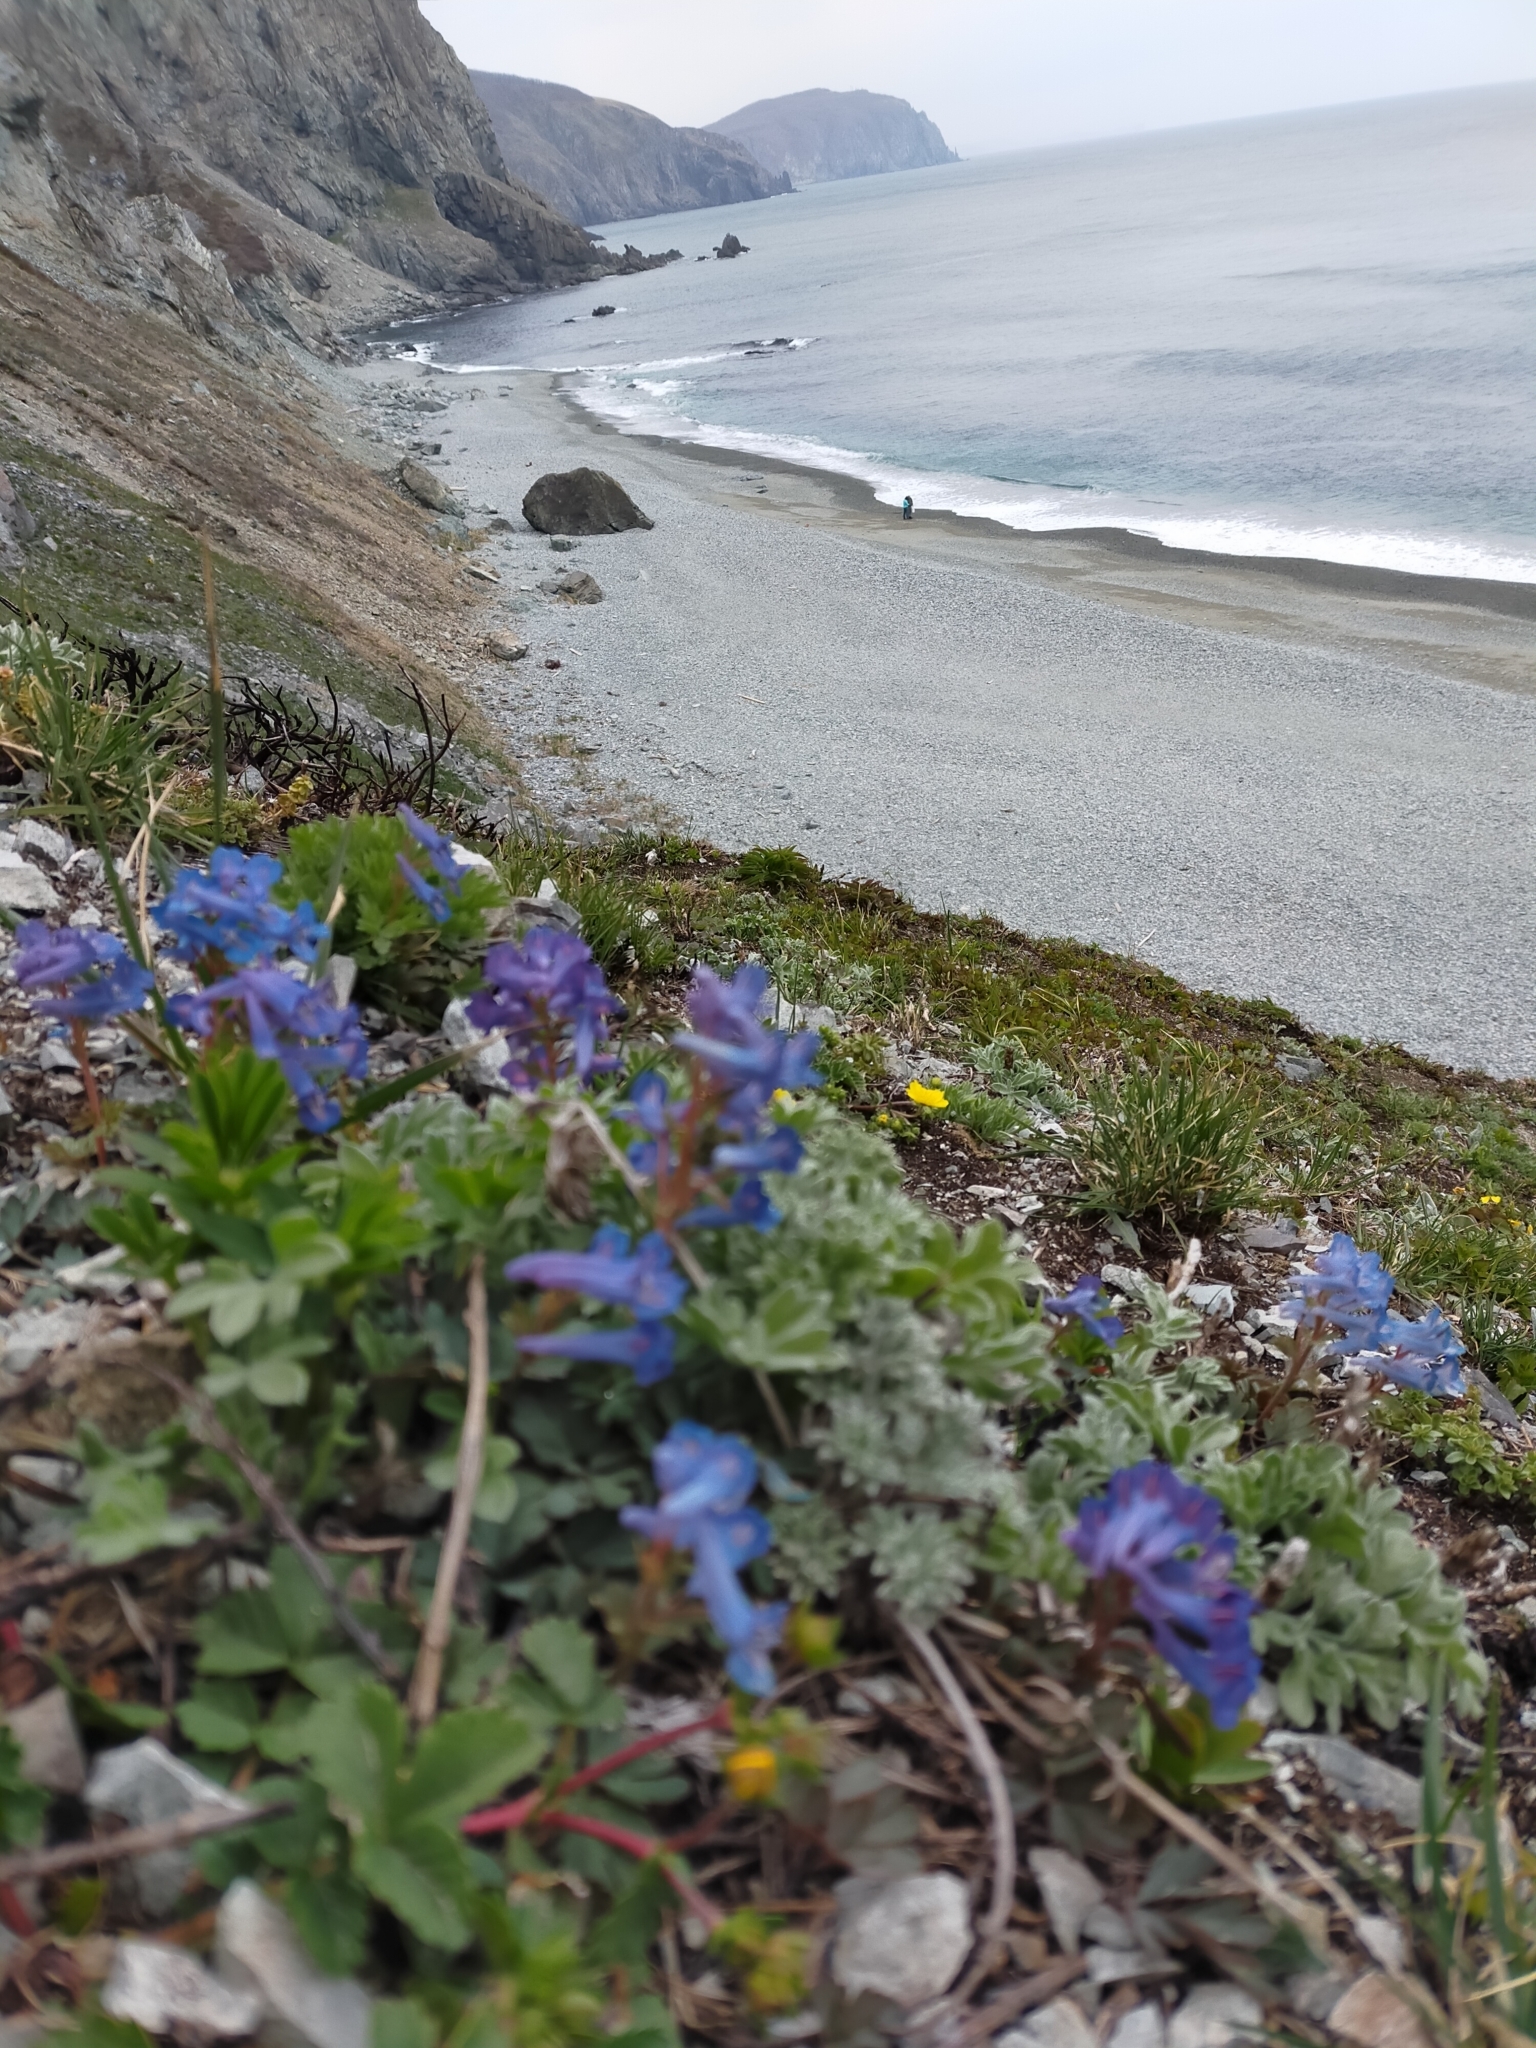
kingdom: Plantae
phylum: Tracheophyta
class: Magnoliopsida
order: Ranunculales
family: Papaveraceae
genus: Corydalis
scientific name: Corydalis turtschaninovii
